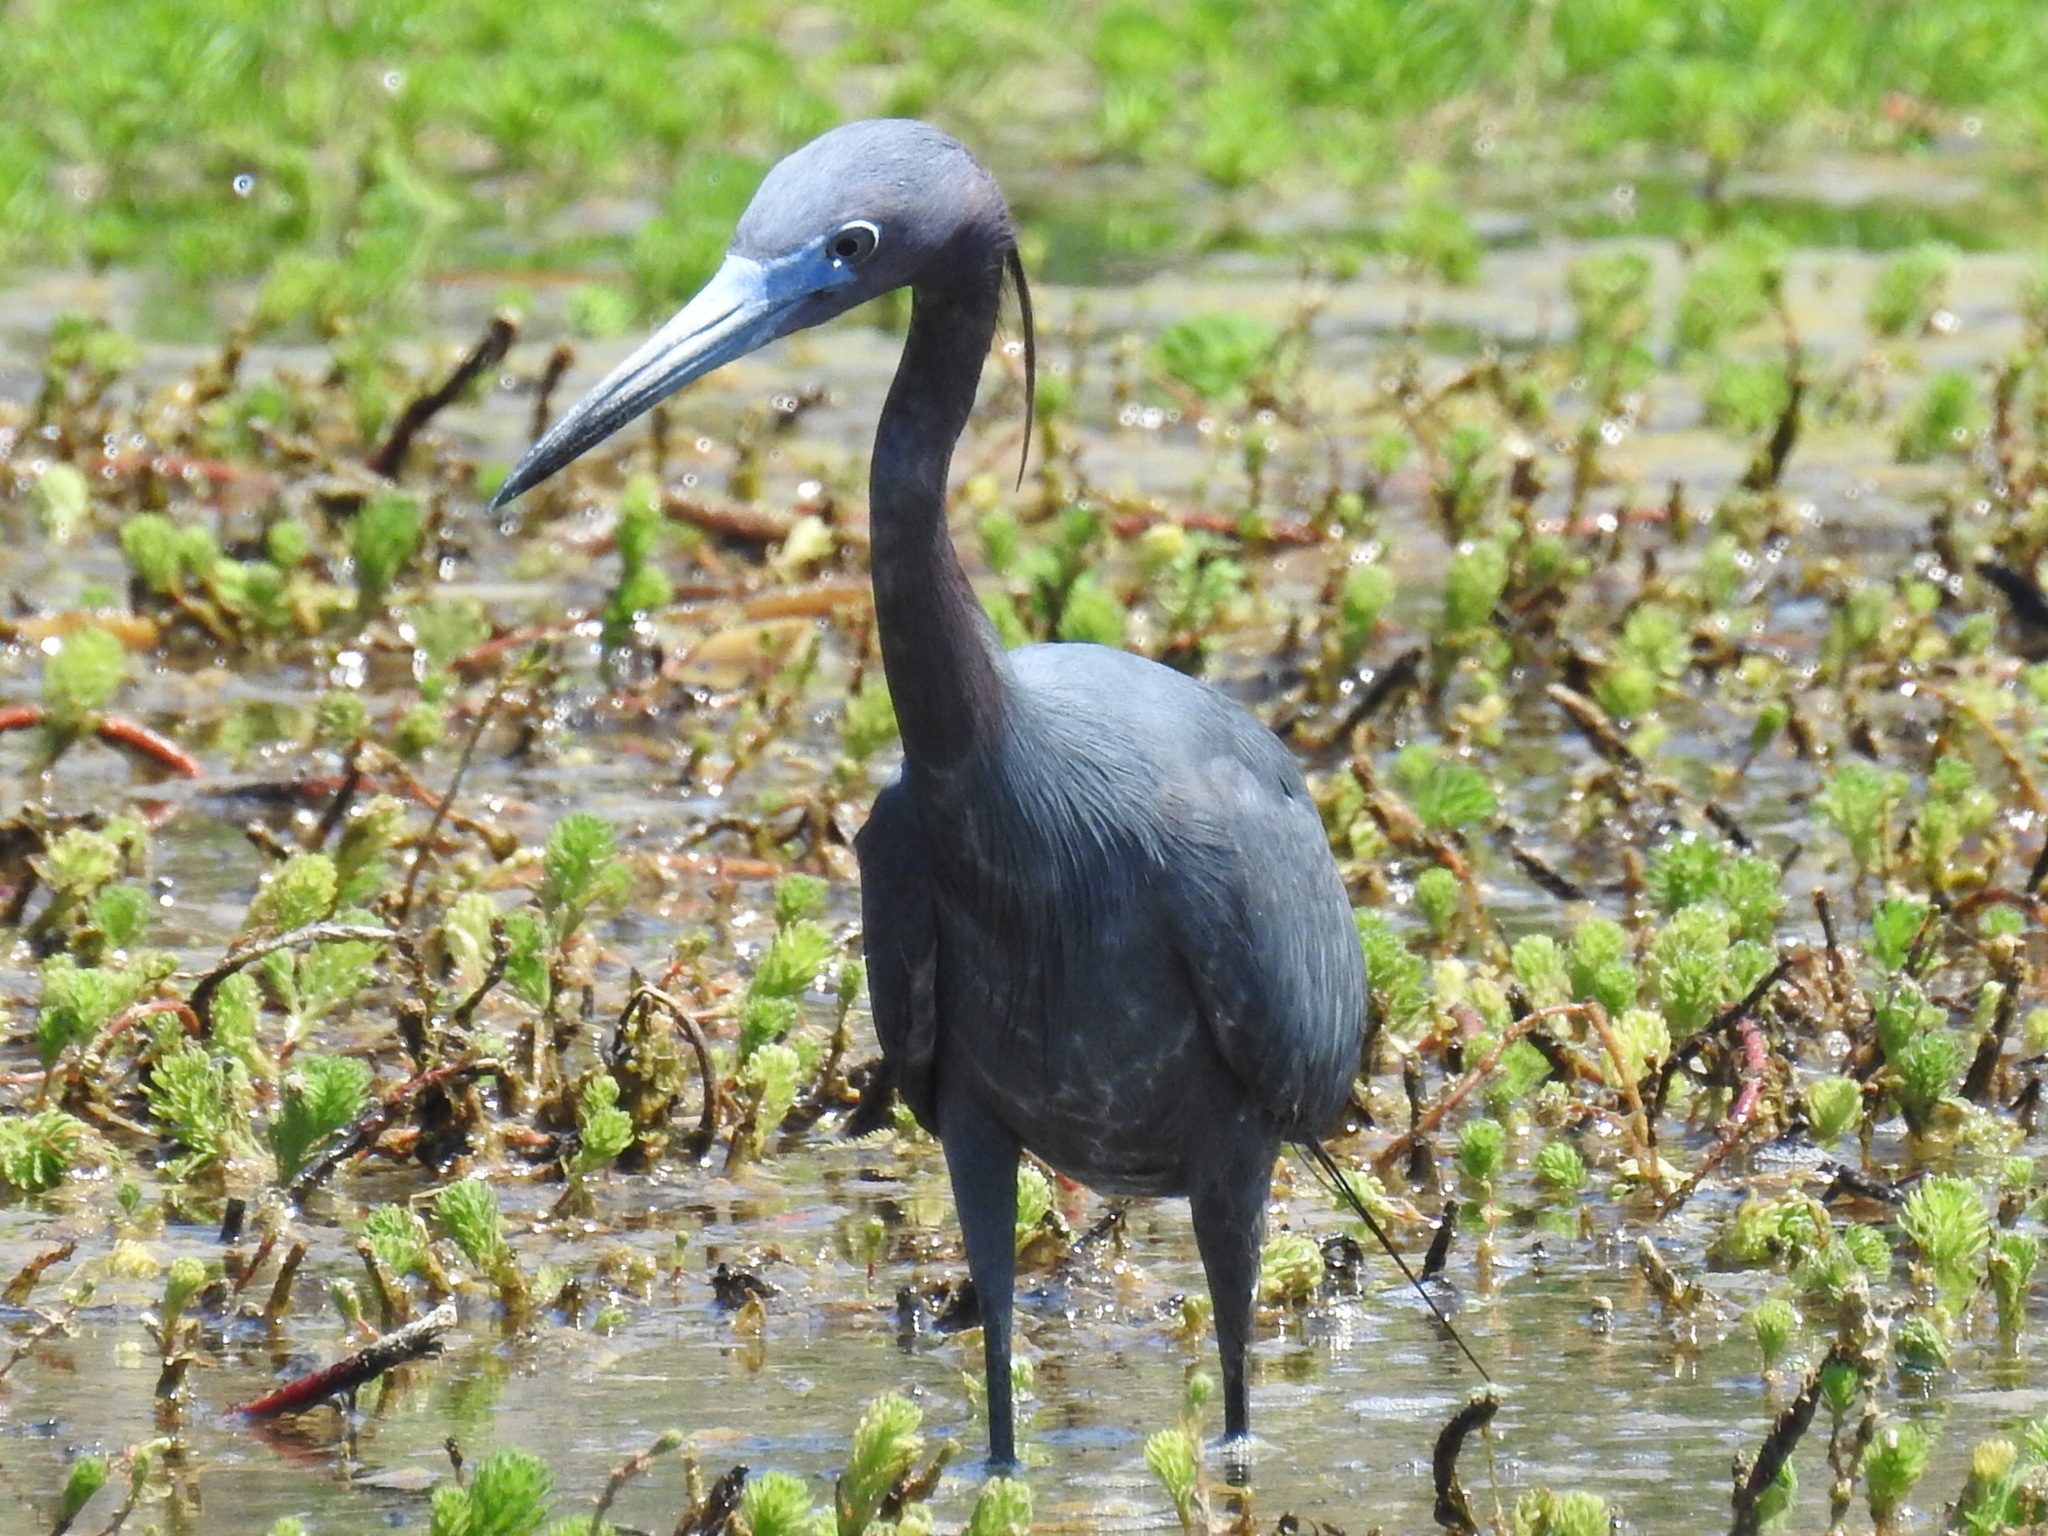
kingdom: Animalia
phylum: Chordata
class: Aves
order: Pelecaniformes
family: Ardeidae
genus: Egretta
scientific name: Egretta caerulea
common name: Little blue heron
